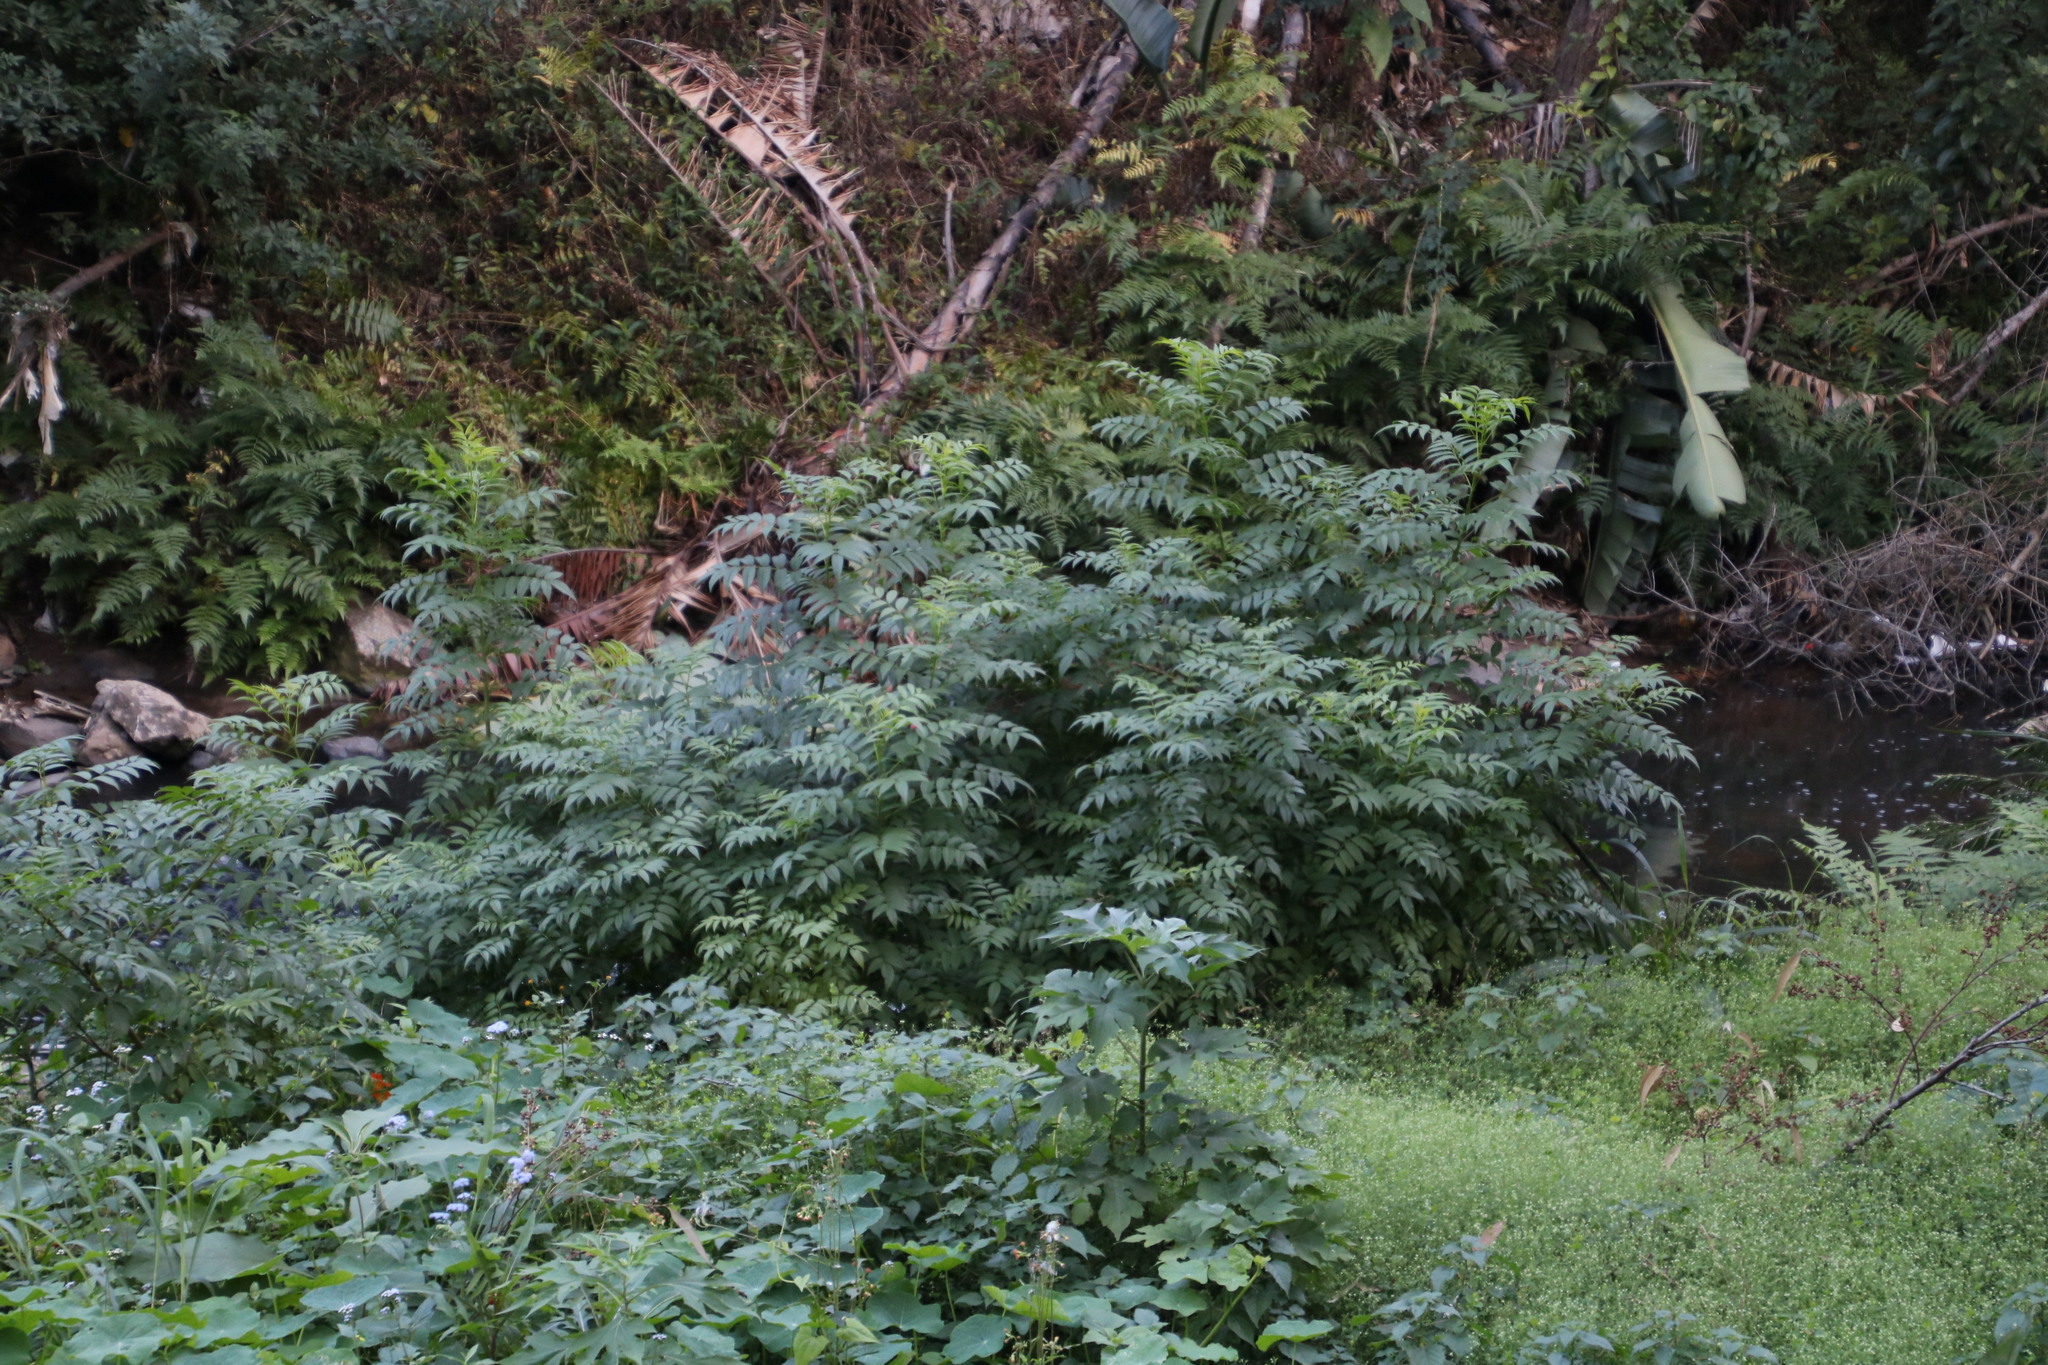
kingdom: Plantae
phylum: Tracheophyta
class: Magnoliopsida
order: Sapindales
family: Meliaceae
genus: Melia
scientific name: Melia azedarach
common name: Chinaberrytree
